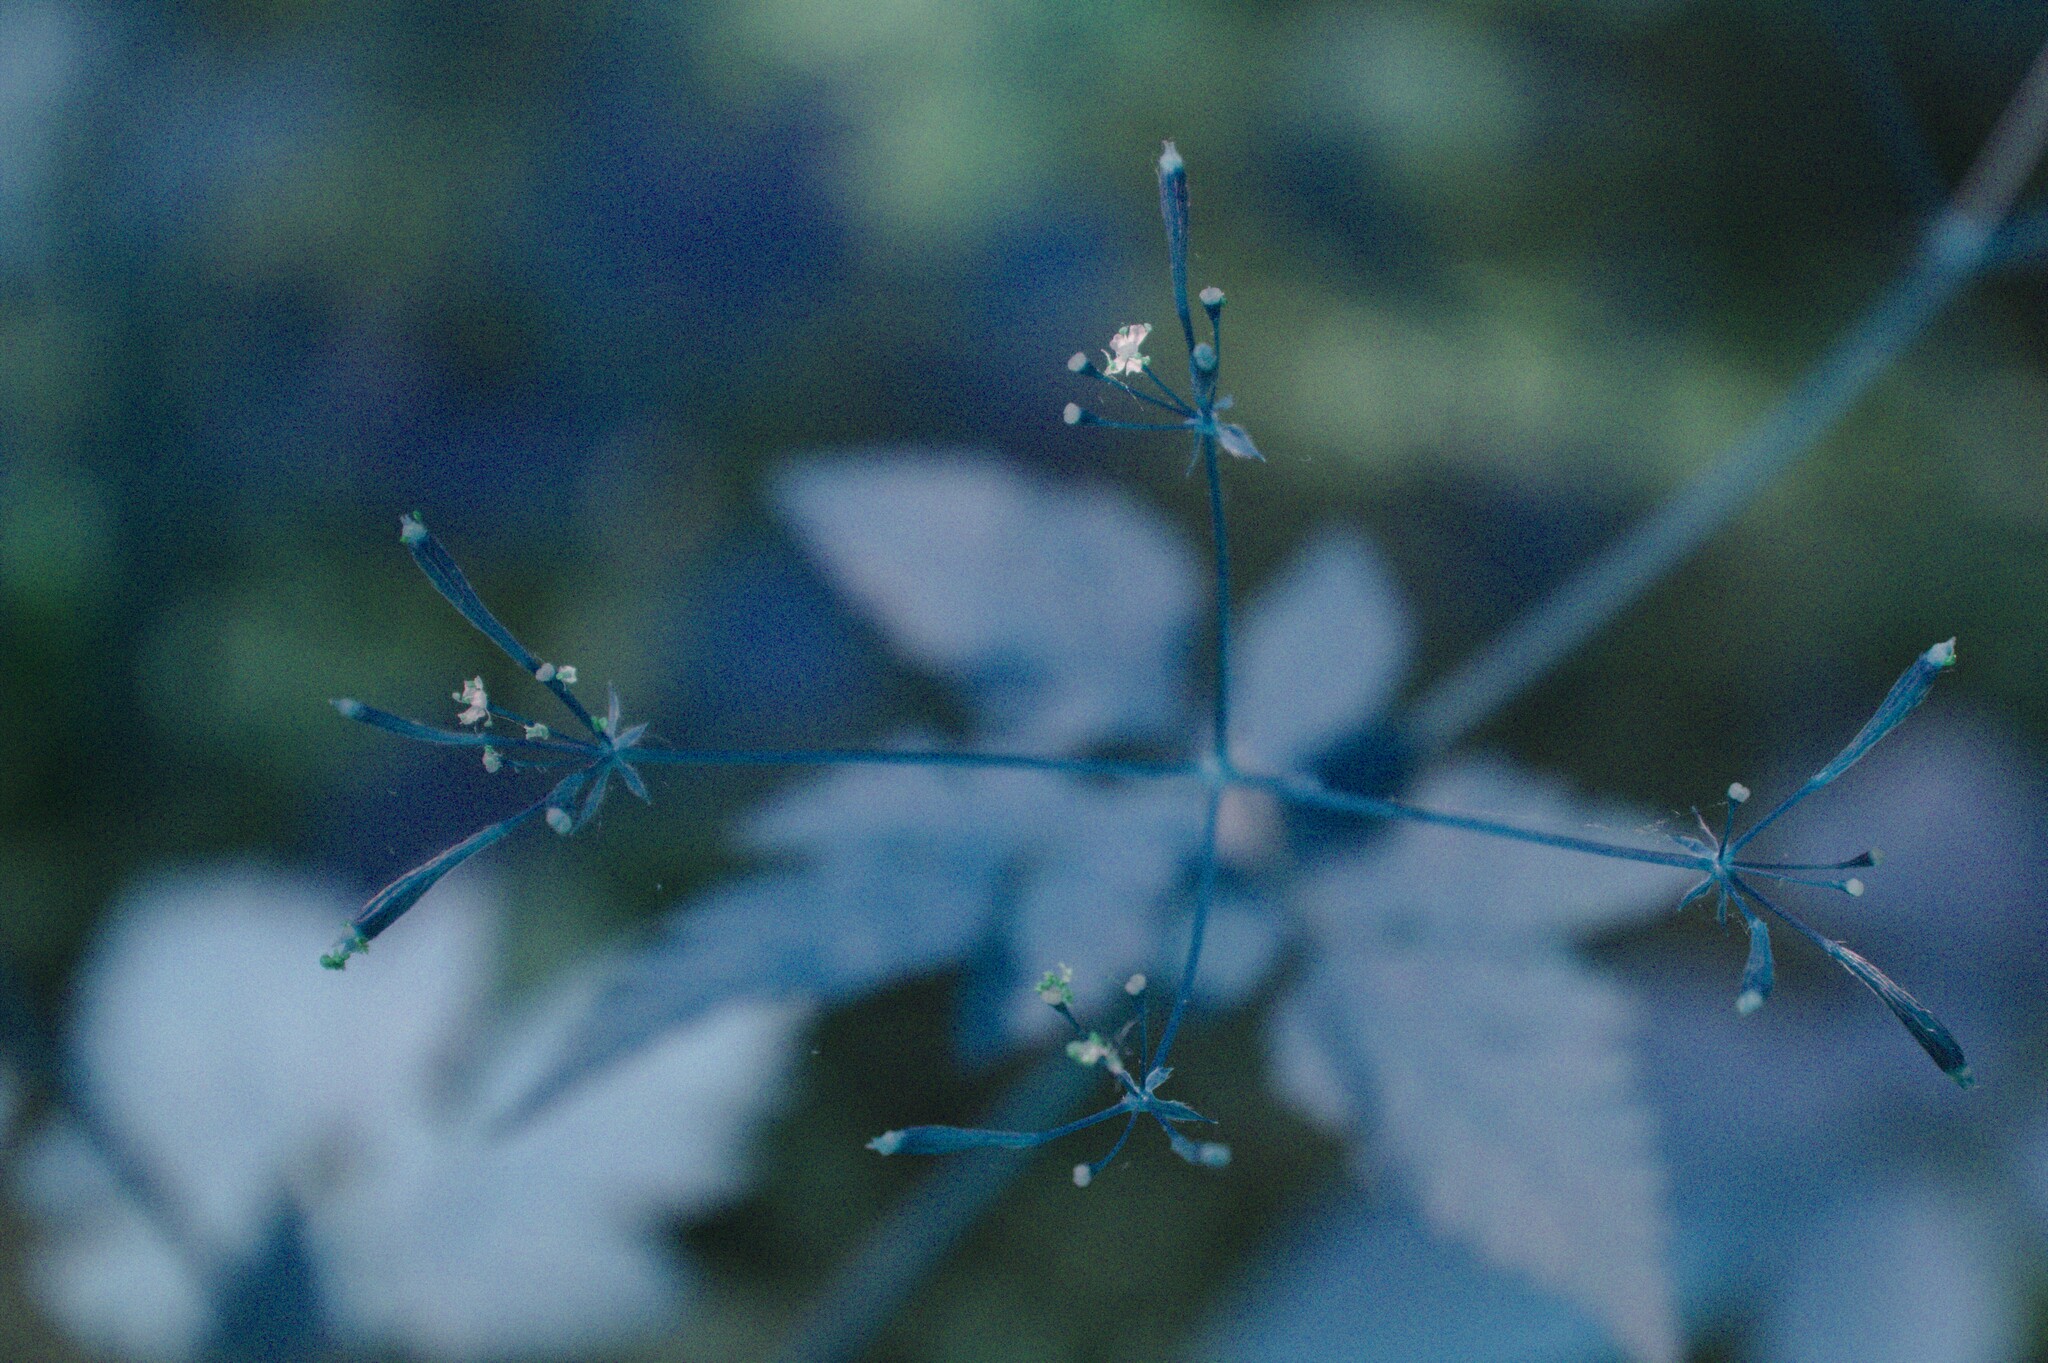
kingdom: Plantae
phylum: Tracheophyta
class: Magnoliopsida
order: Apiales
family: Apiaceae
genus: Osmorhiza
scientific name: Osmorhiza claytonii
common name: Hairy sweet cicely
